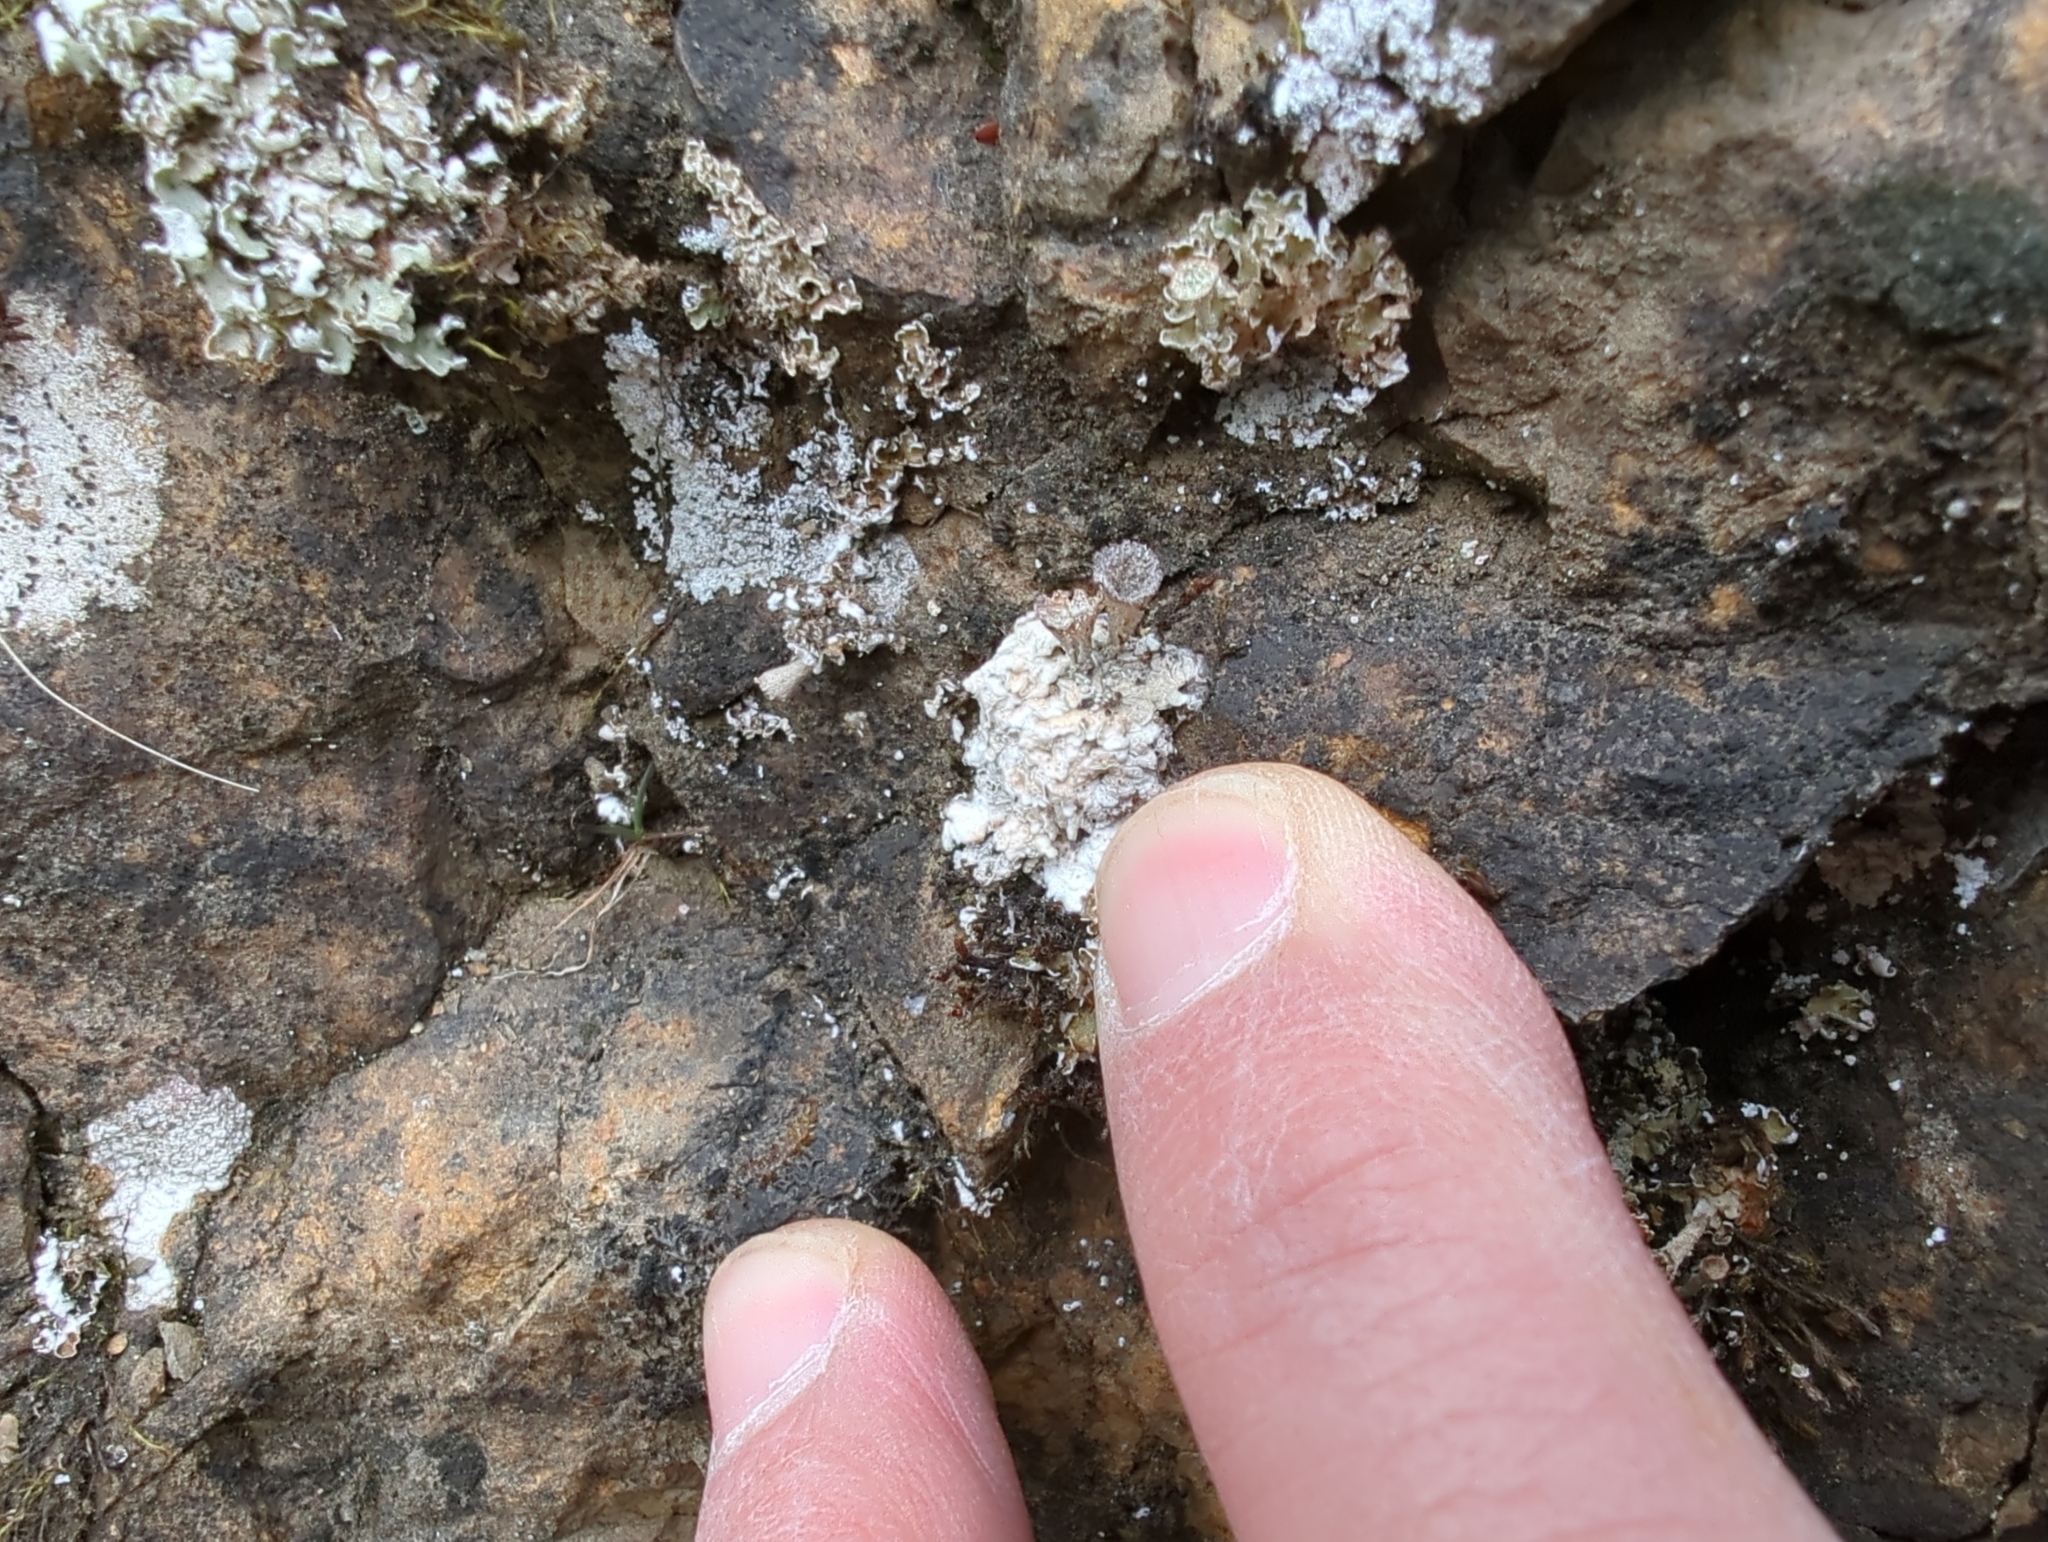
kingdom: Fungi
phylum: Ascomycota
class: Lecanoromycetes
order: Ostropales
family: Graphidaceae
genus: Diploschistes
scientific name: Diploschistes muscorum
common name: Cowpie lichen
